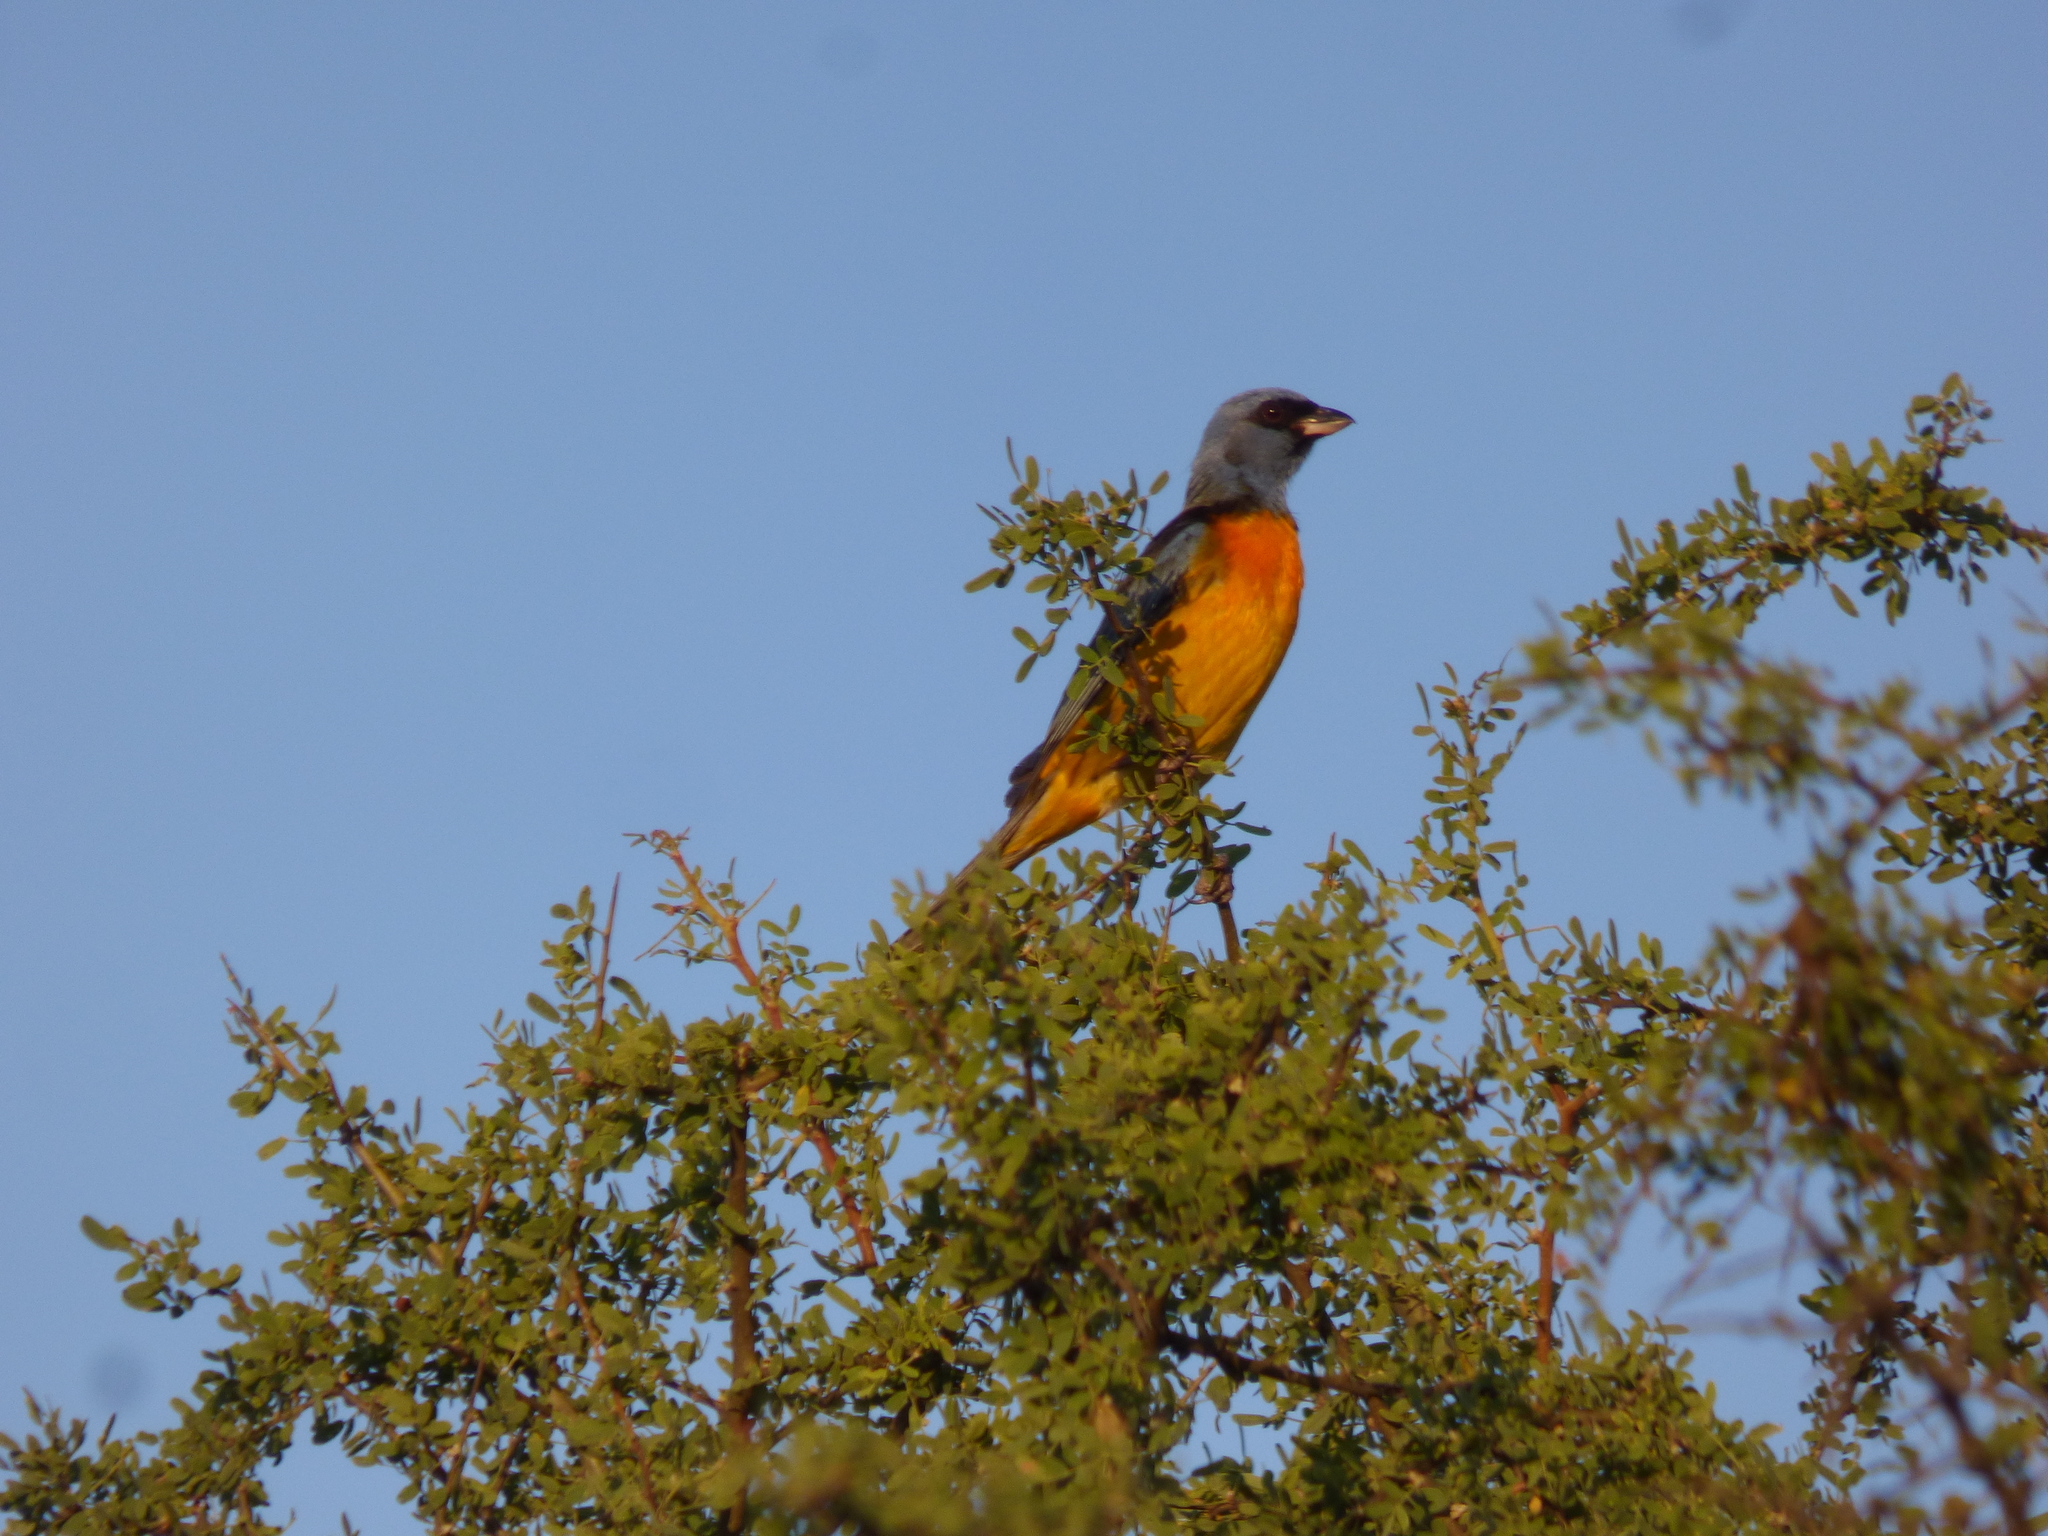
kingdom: Animalia
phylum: Chordata
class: Aves
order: Passeriformes
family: Thraupidae
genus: Rauenia
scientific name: Rauenia bonariensis
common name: Blue-and-yellow tanager
